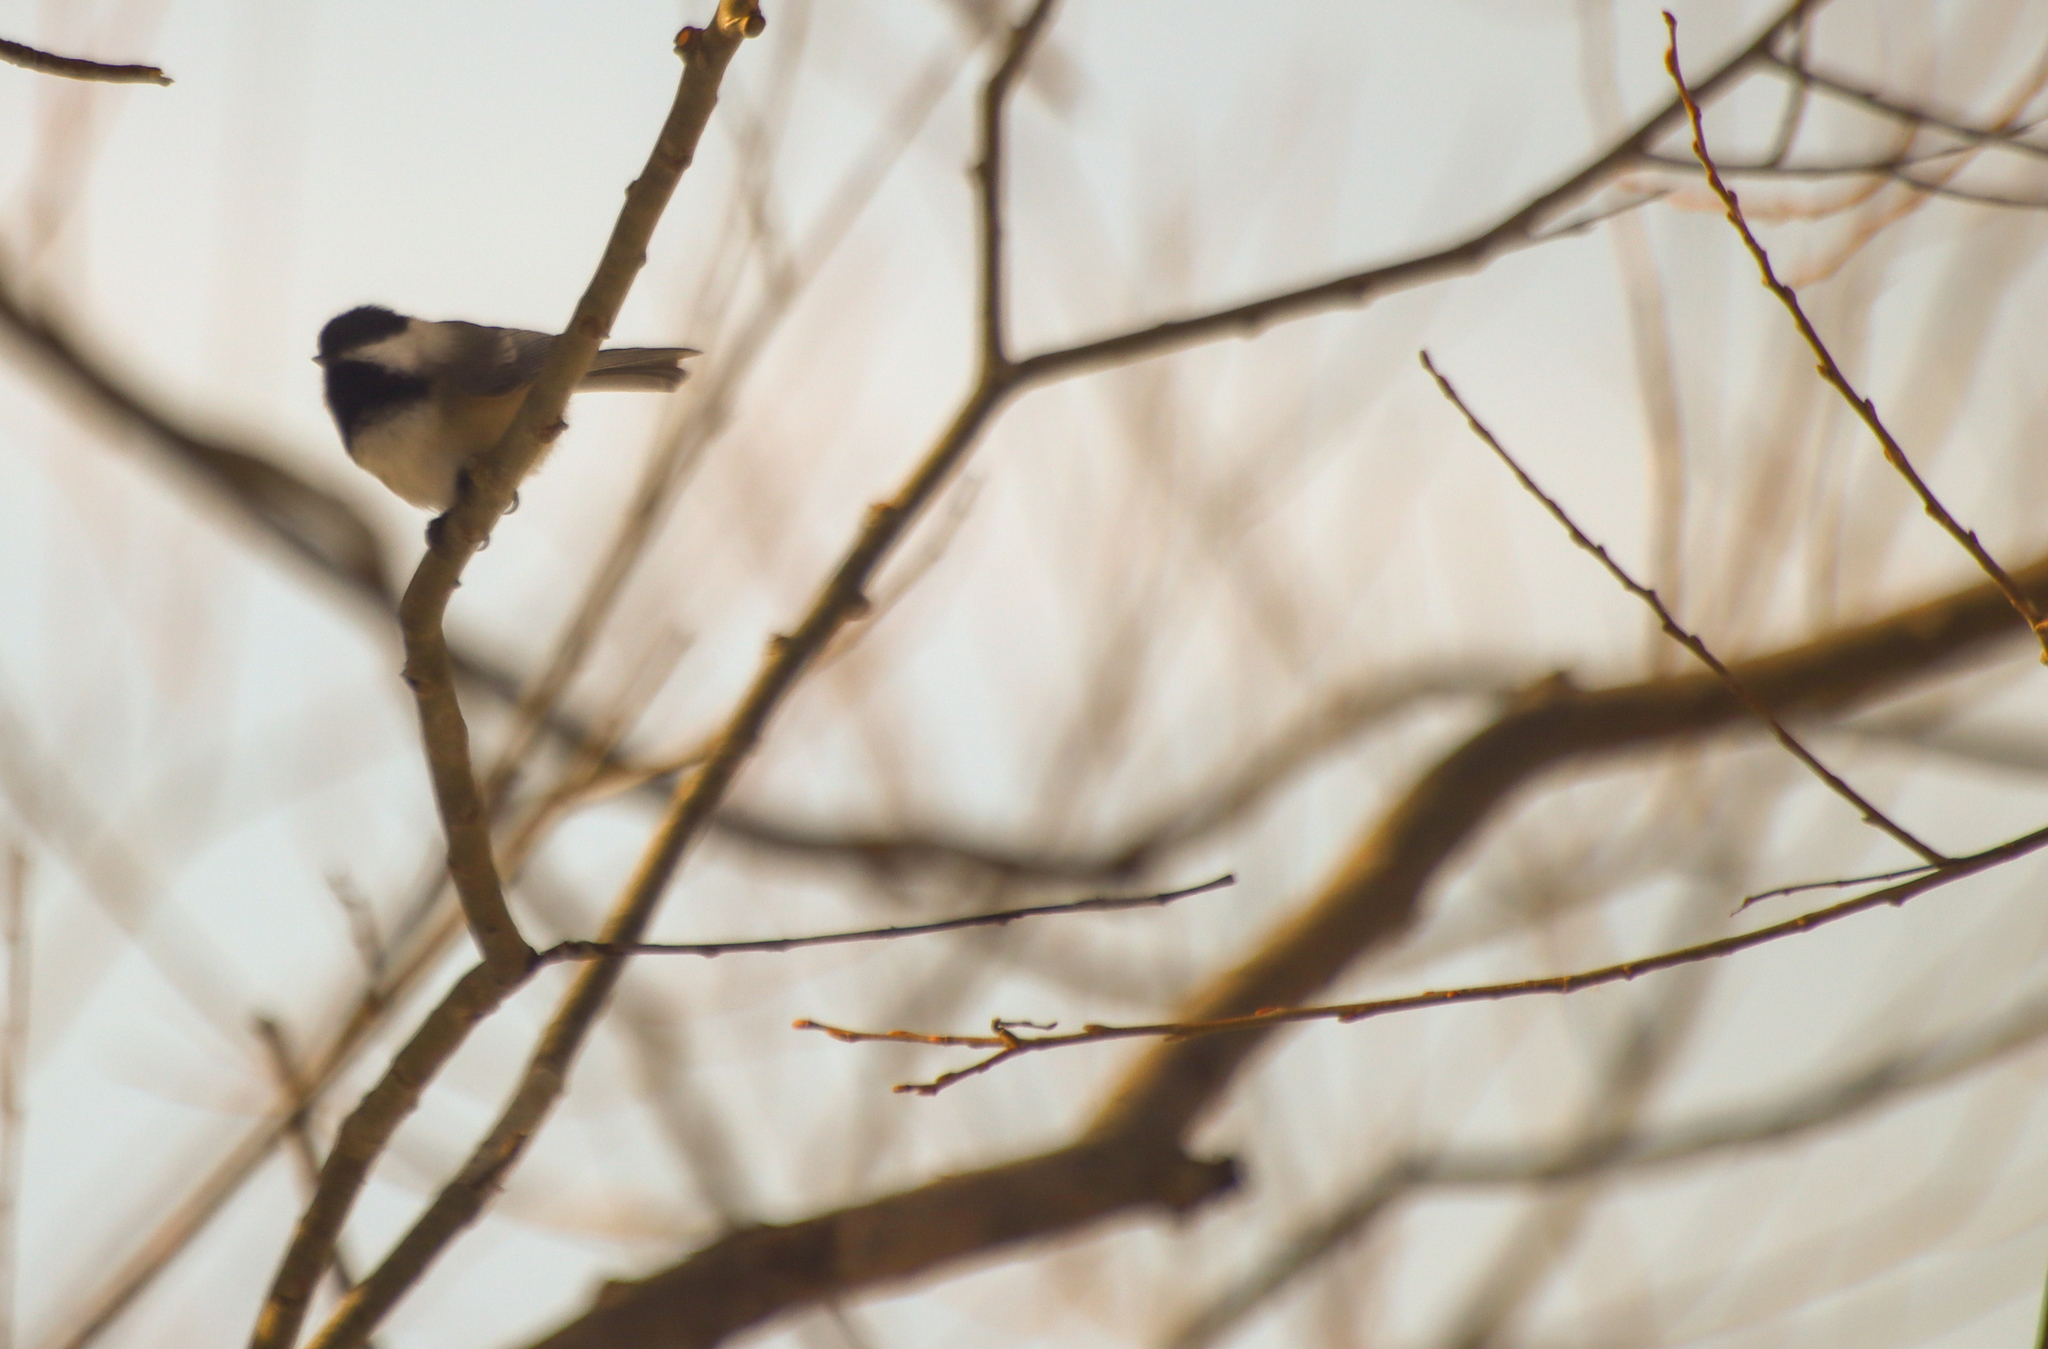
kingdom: Animalia
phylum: Chordata
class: Aves
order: Passeriformes
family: Paridae
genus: Poecile
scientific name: Poecile atricapillus
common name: Black-capped chickadee
